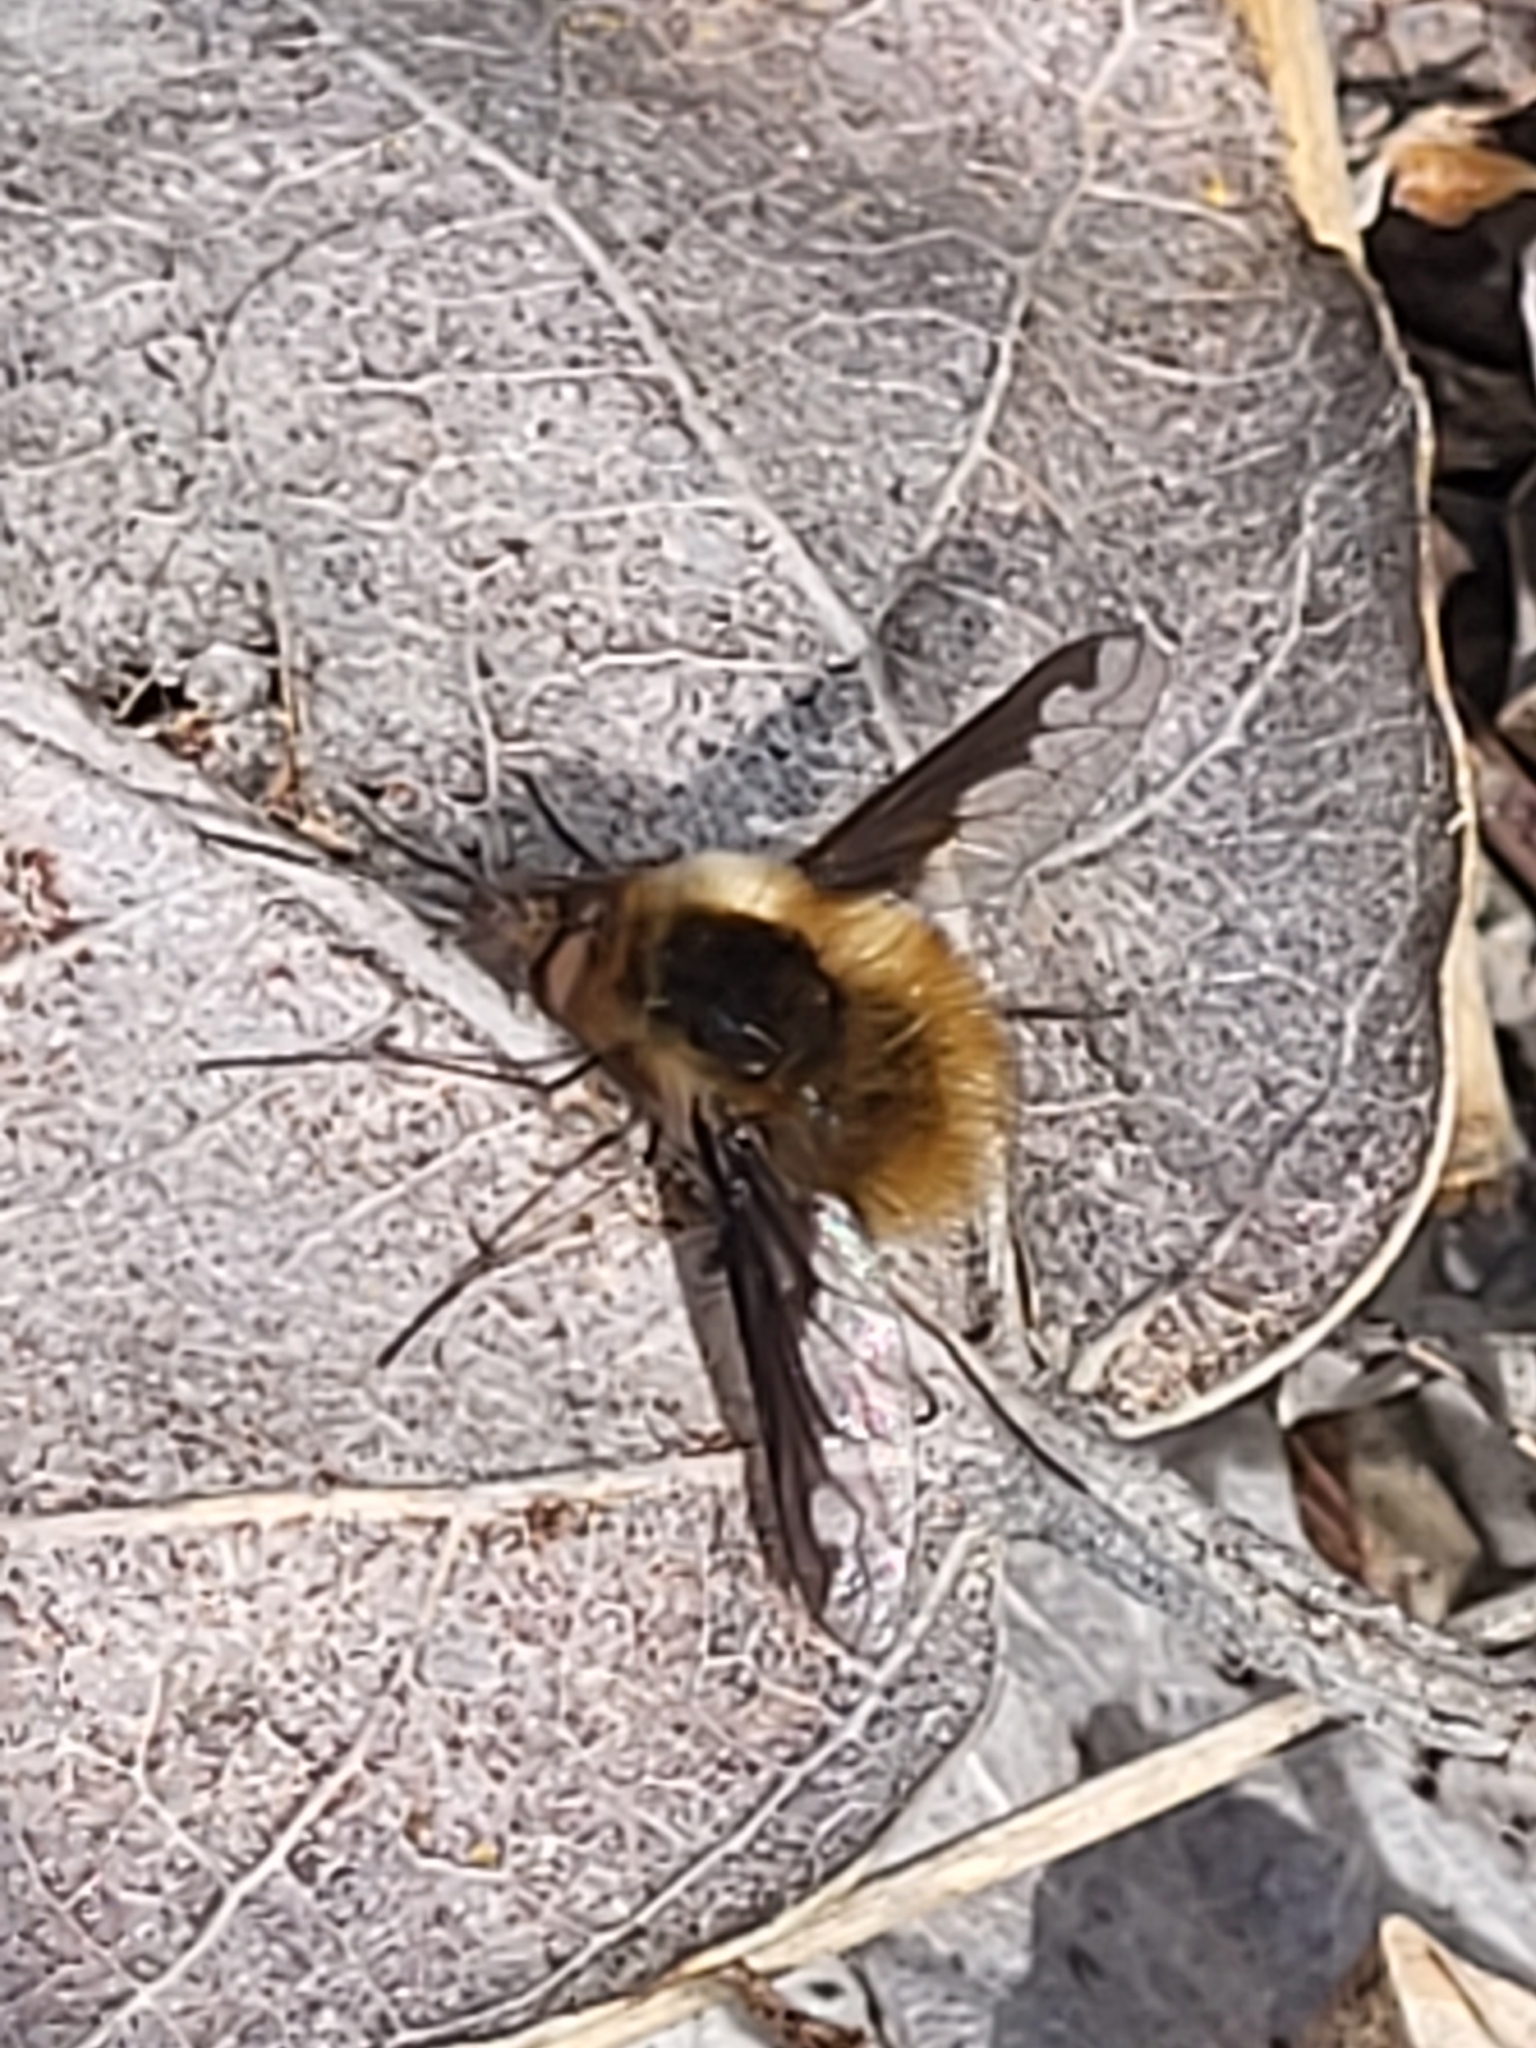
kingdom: Animalia
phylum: Arthropoda
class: Insecta
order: Diptera
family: Bombyliidae
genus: Bombylius
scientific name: Bombylius major
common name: Bee fly
